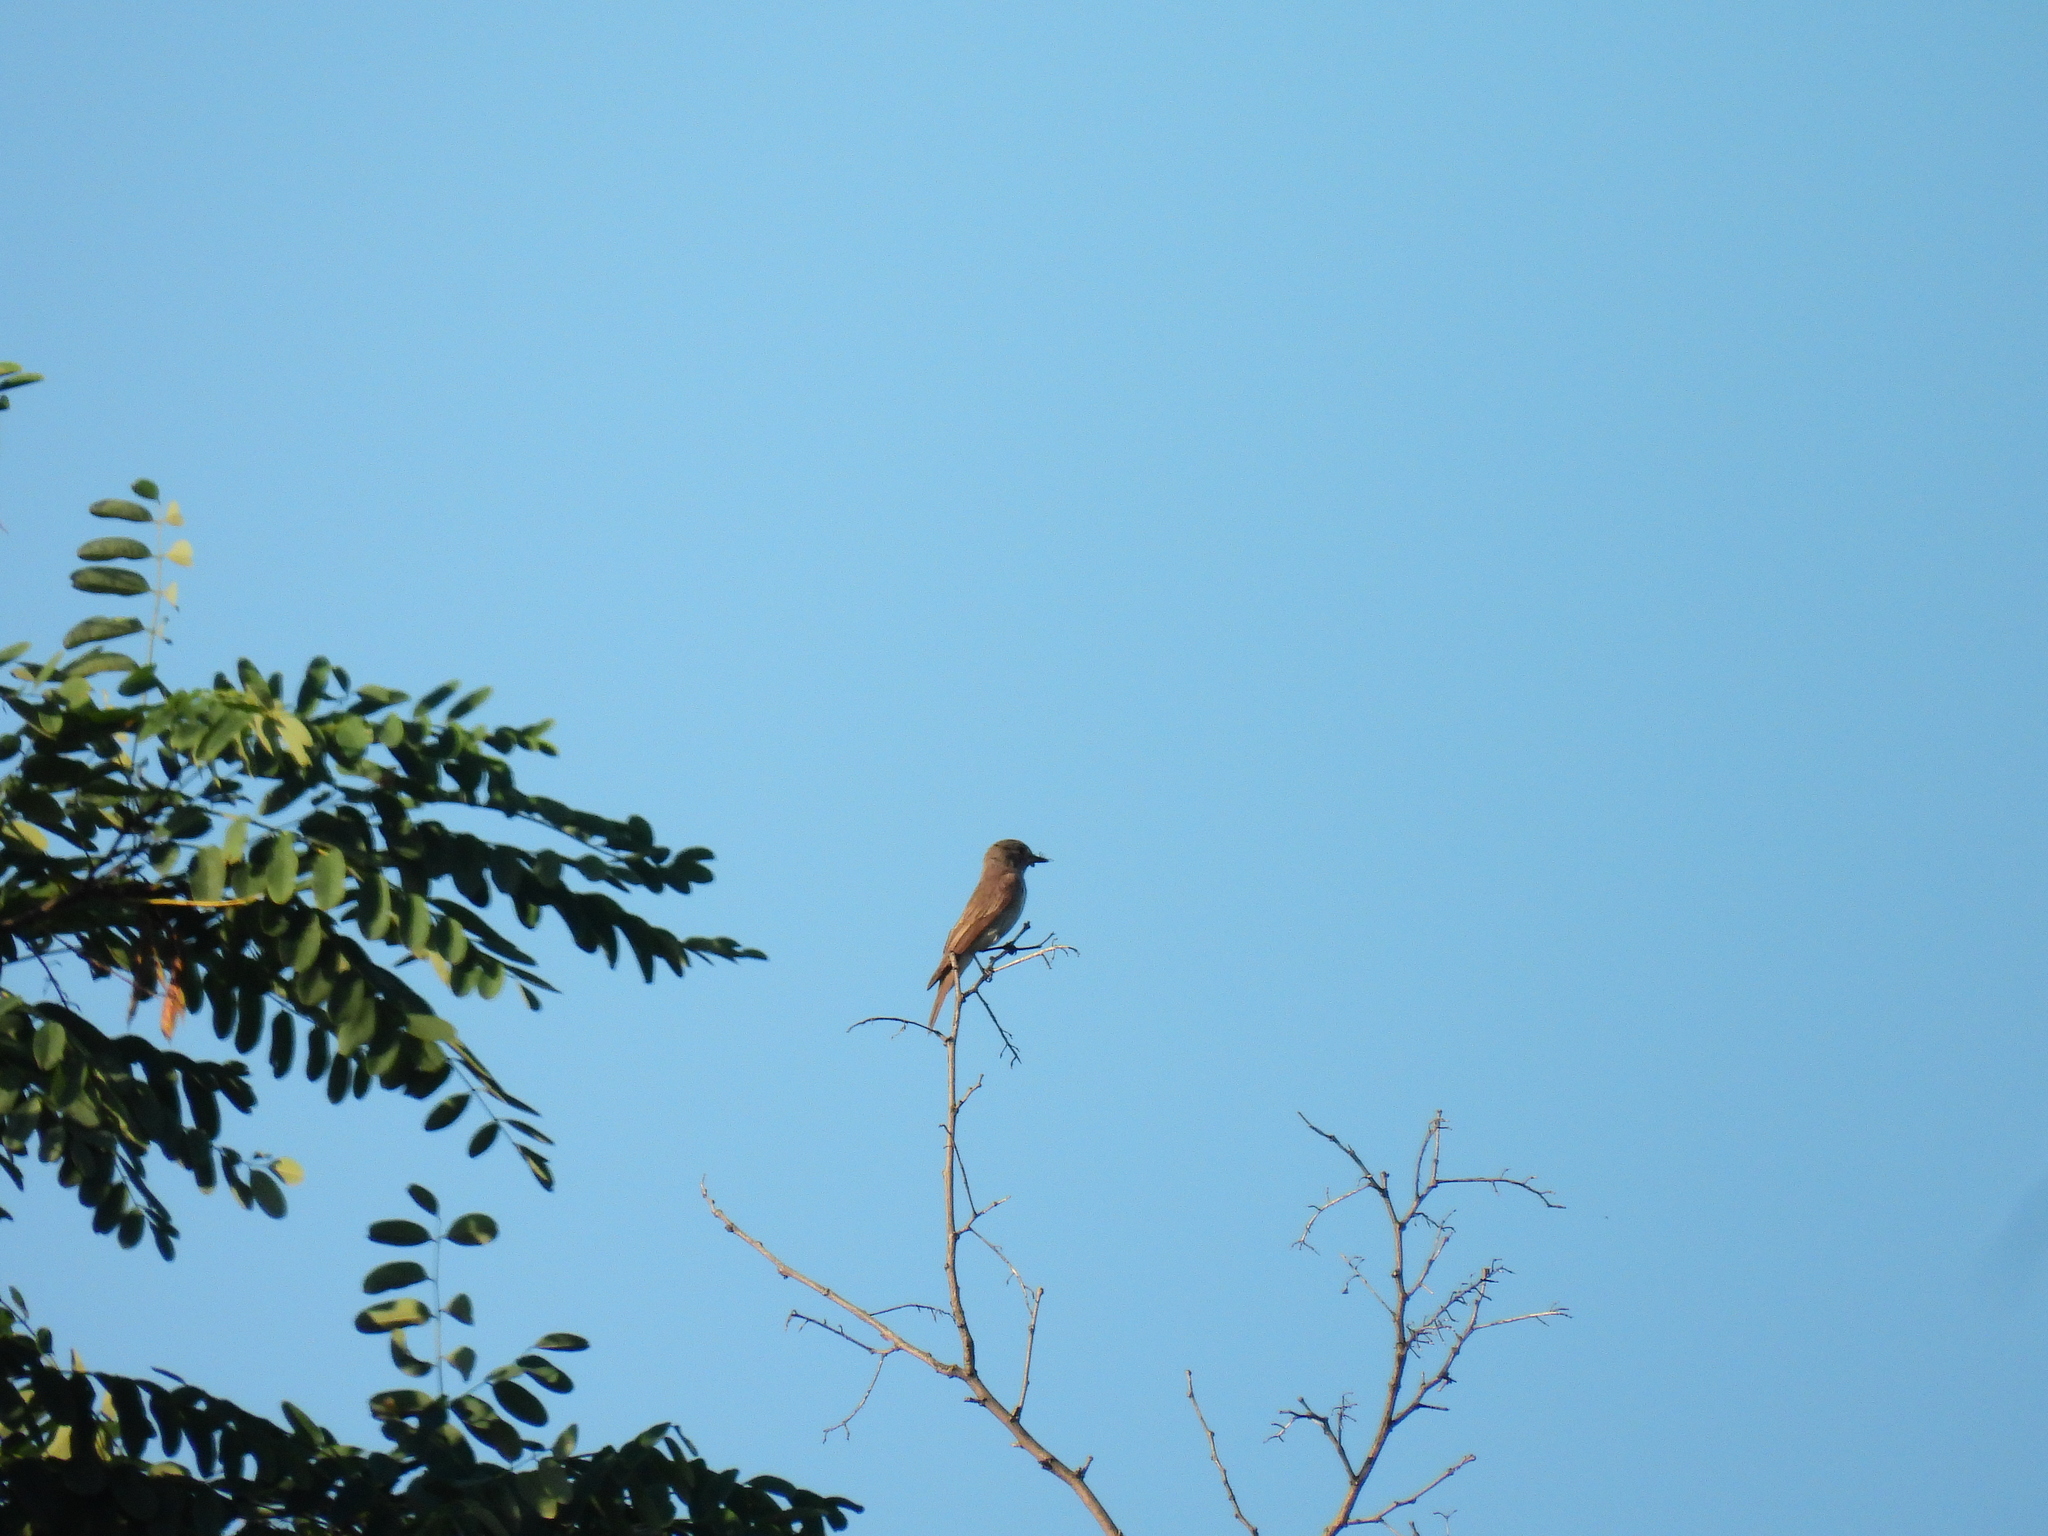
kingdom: Animalia
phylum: Chordata
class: Aves
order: Passeriformes
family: Muscicapidae
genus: Muscicapa
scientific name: Muscicapa striata
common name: Spotted flycatcher
